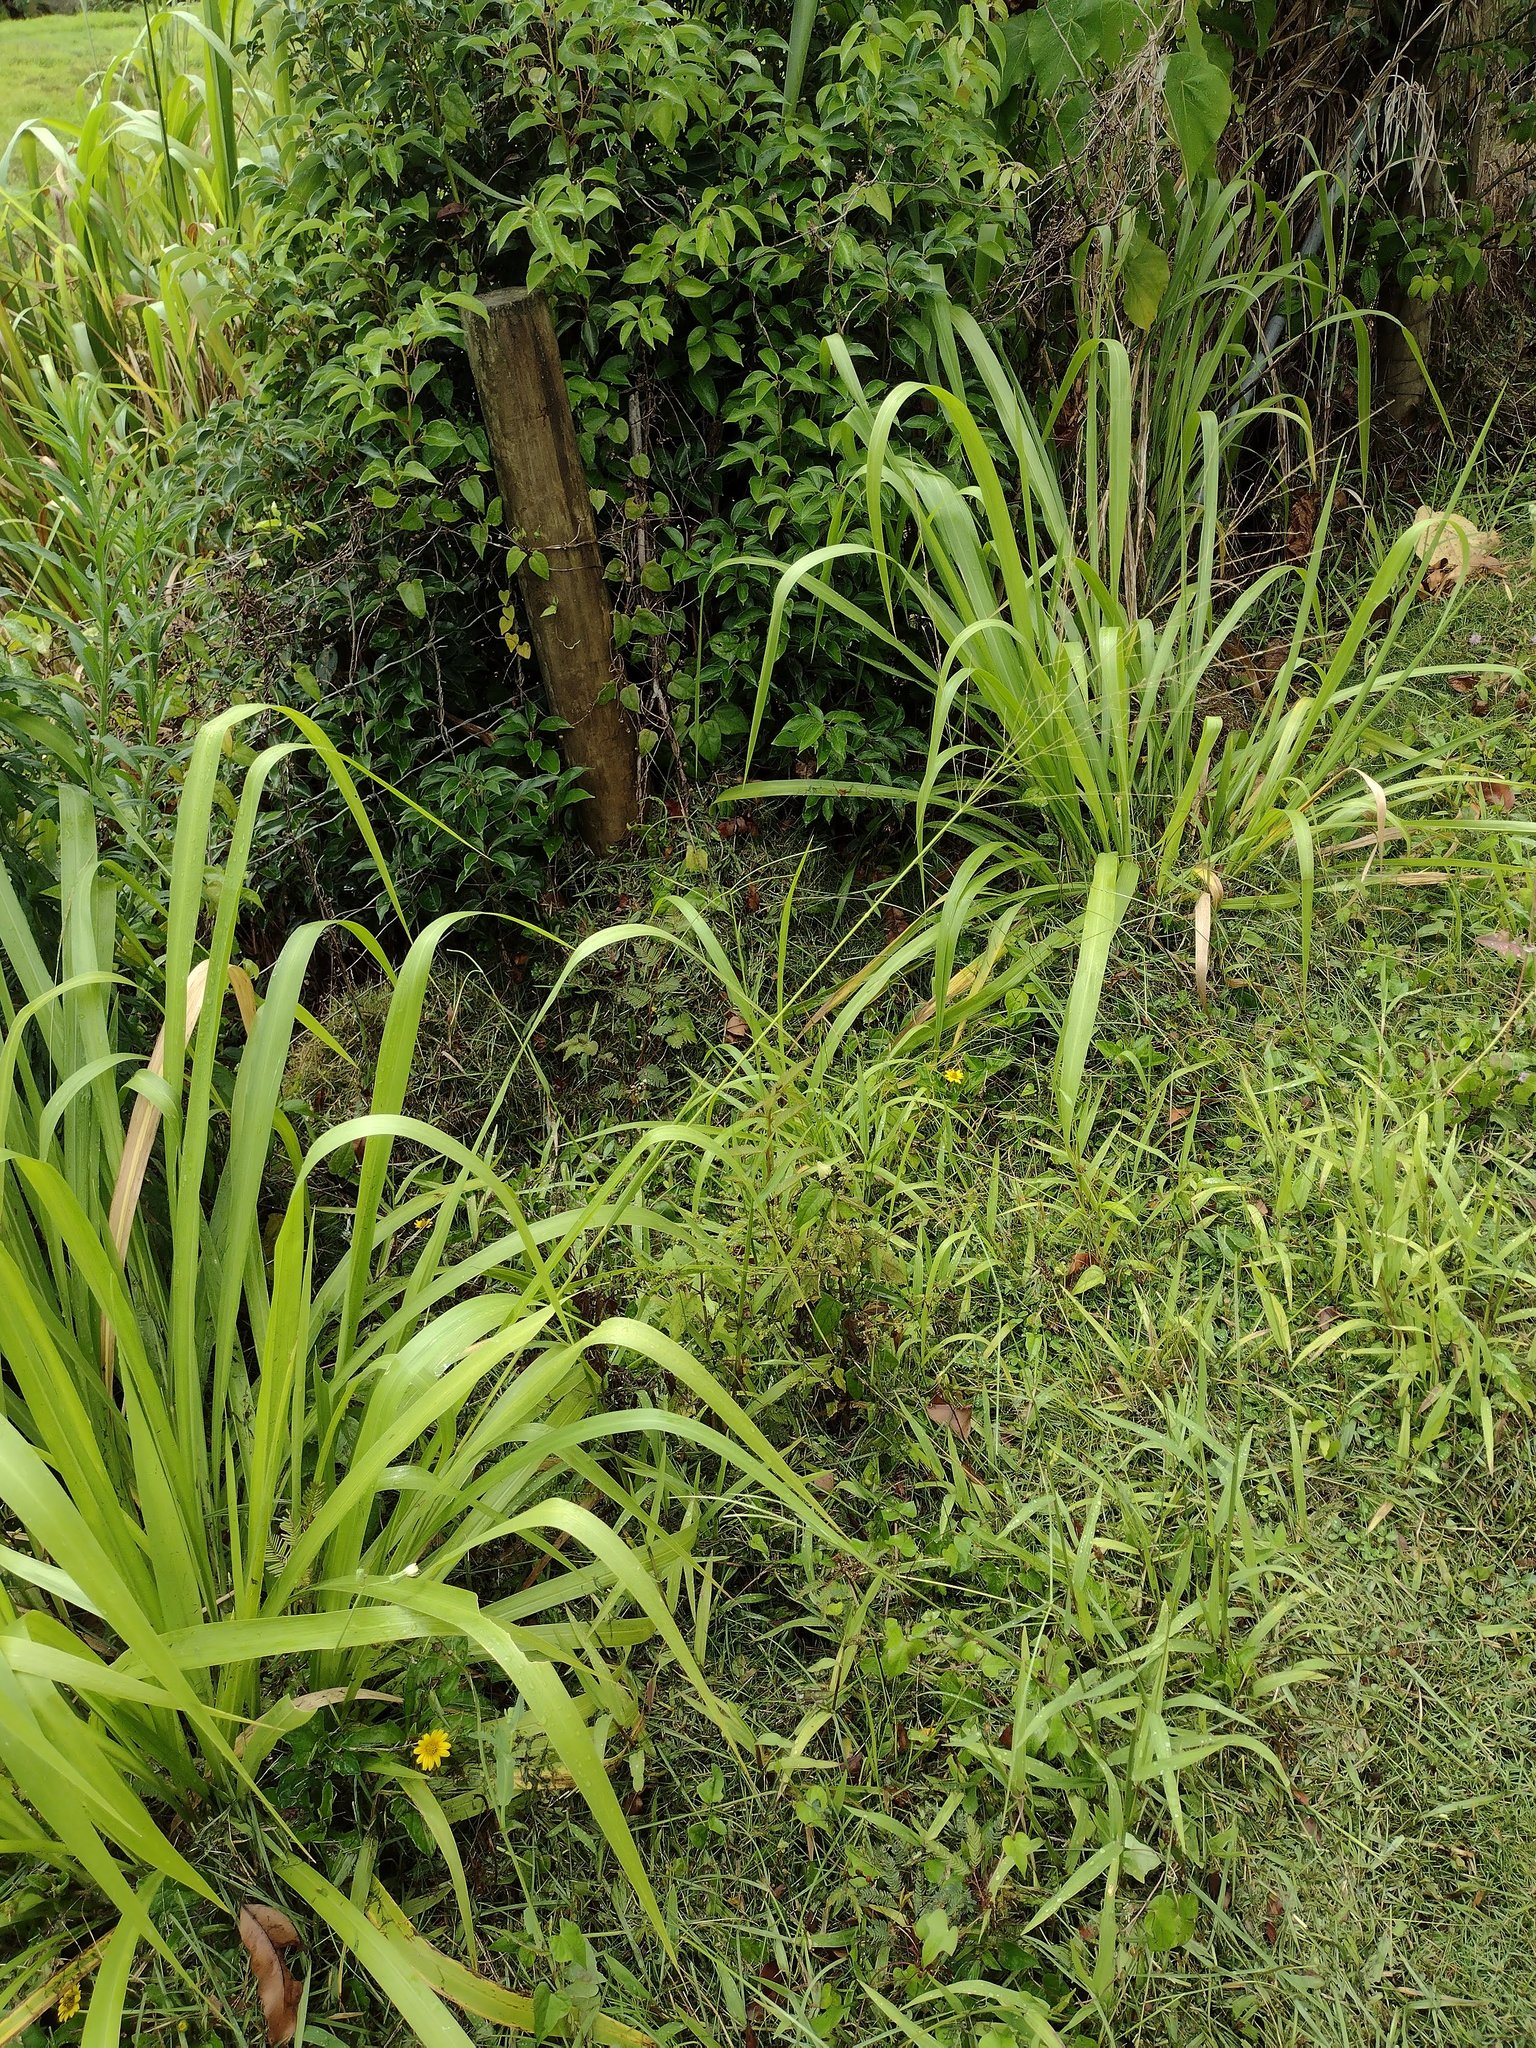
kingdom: Plantae
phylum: Tracheophyta
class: Liliopsida
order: Poales
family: Poaceae
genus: Megathyrsus
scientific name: Megathyrsus maximus
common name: Guineagrass
